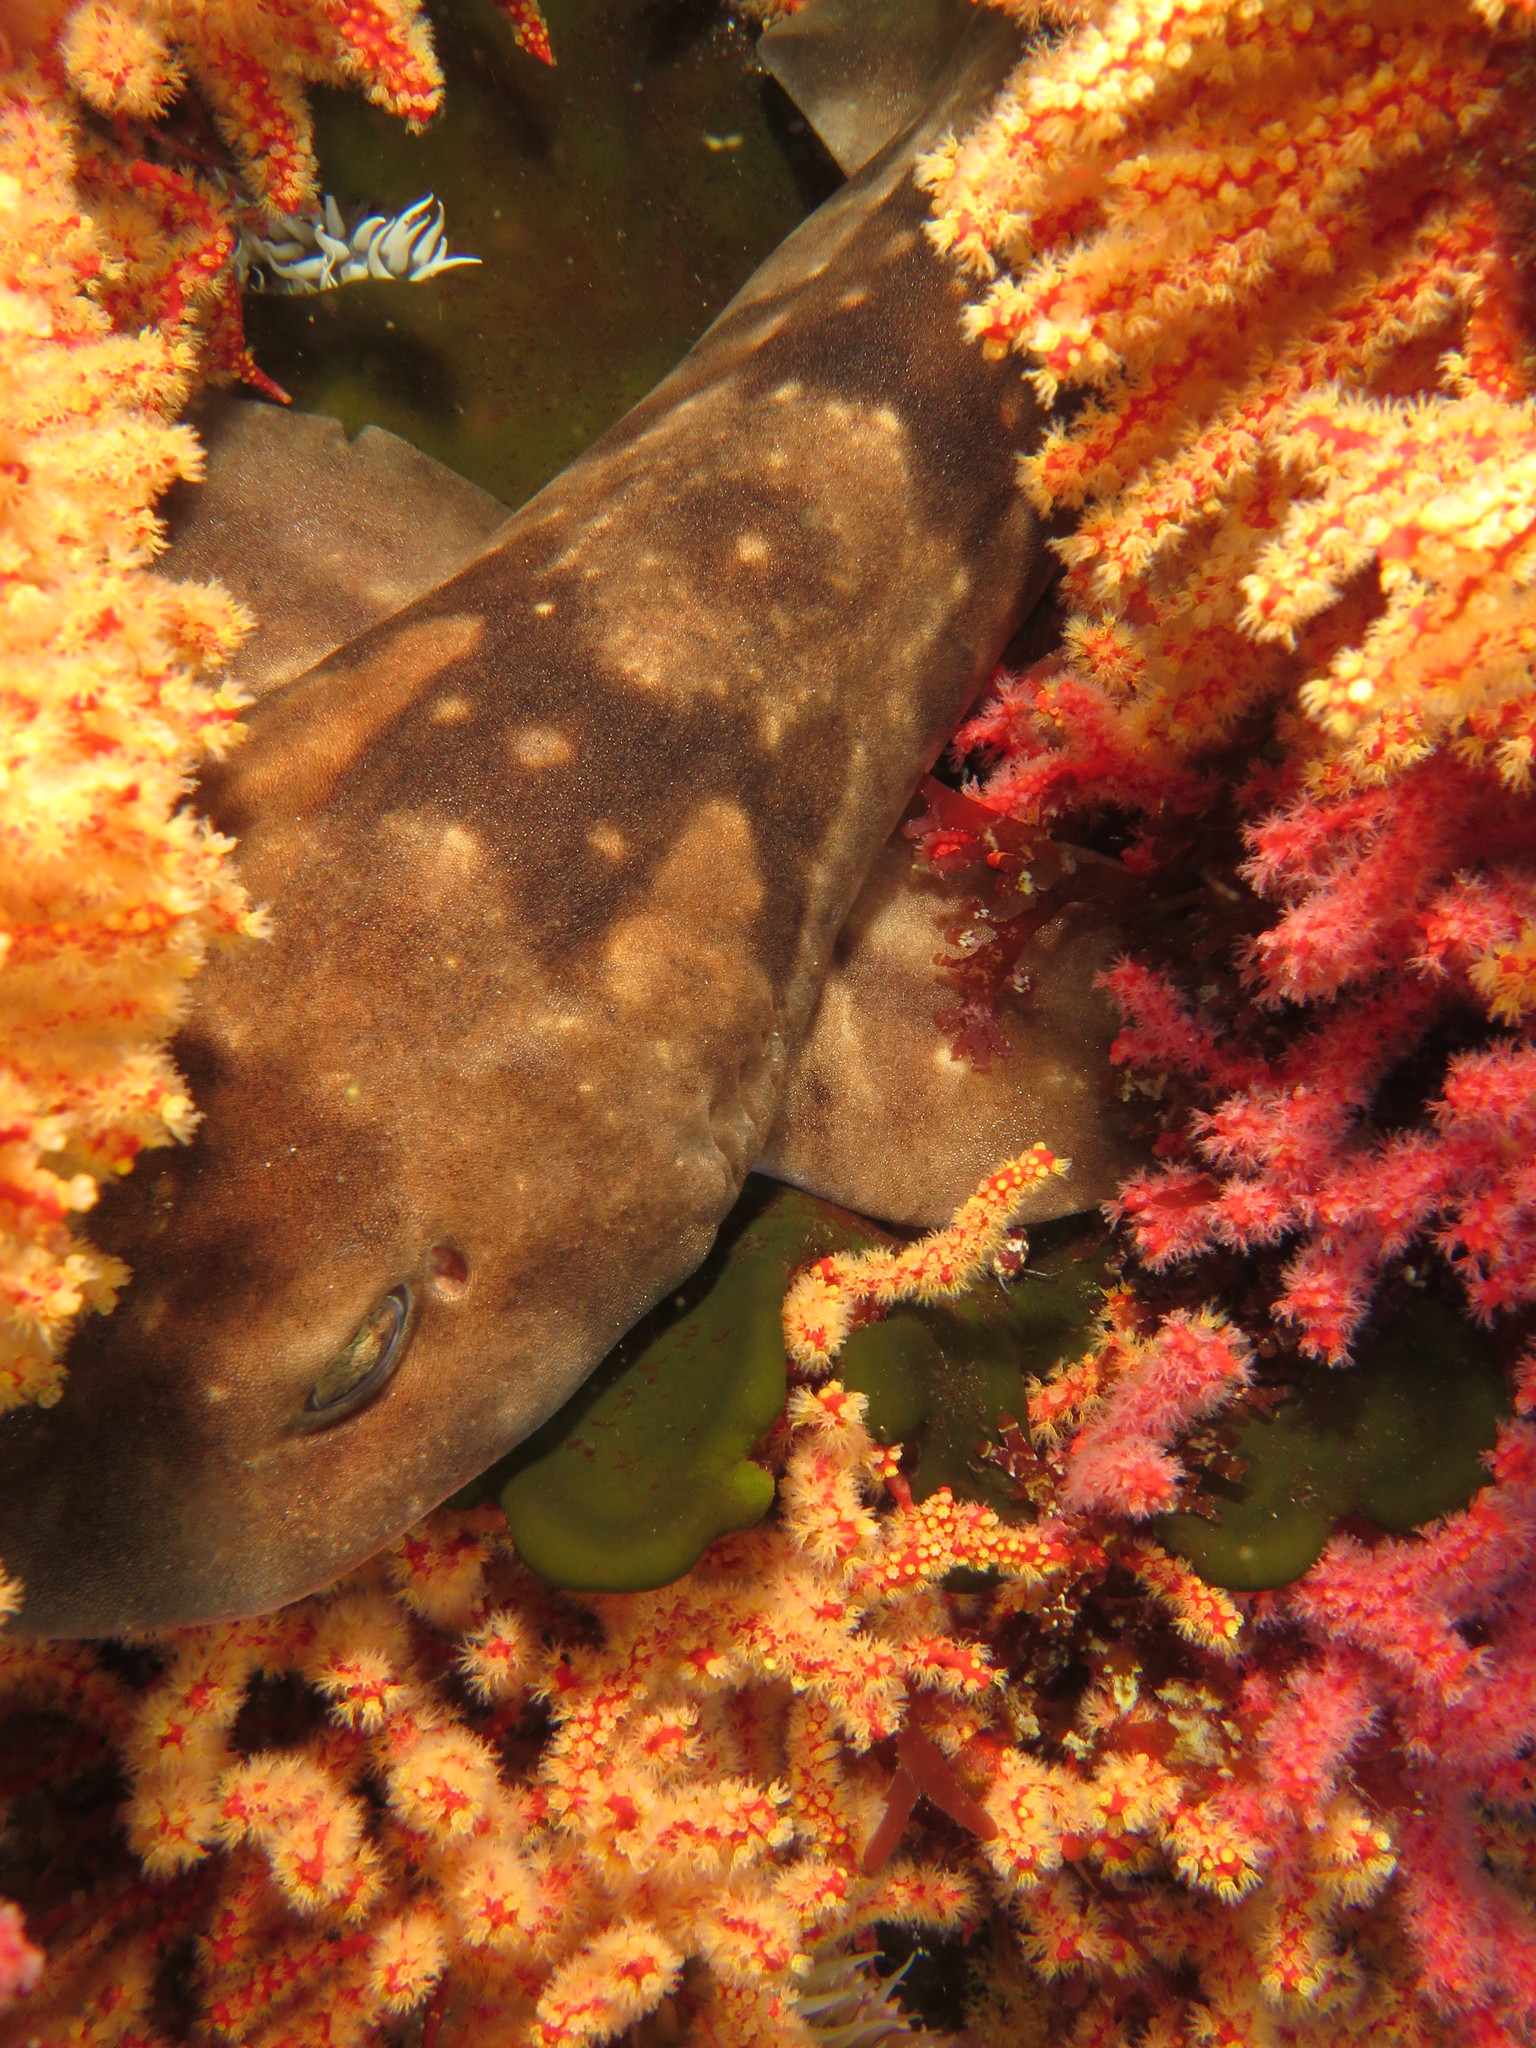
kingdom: Animalia
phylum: Chordata
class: Elasmobranchii
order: Carcharhiniformes
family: Scyliorhinidae
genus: Haploblepharus
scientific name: Haploblepharus pictus
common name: Dark shyshark
